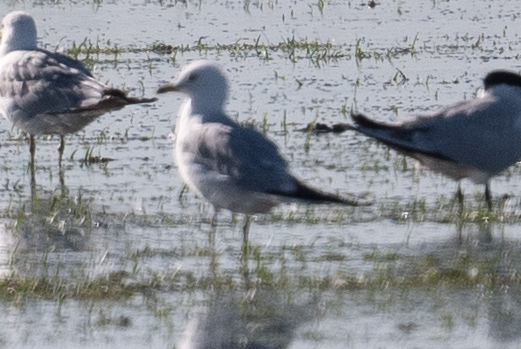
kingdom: Animalia
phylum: Chordata
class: Aves
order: Charadriiformes
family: Laridae
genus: Larus
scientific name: Larus delawarensis
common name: Ring-billed gull
